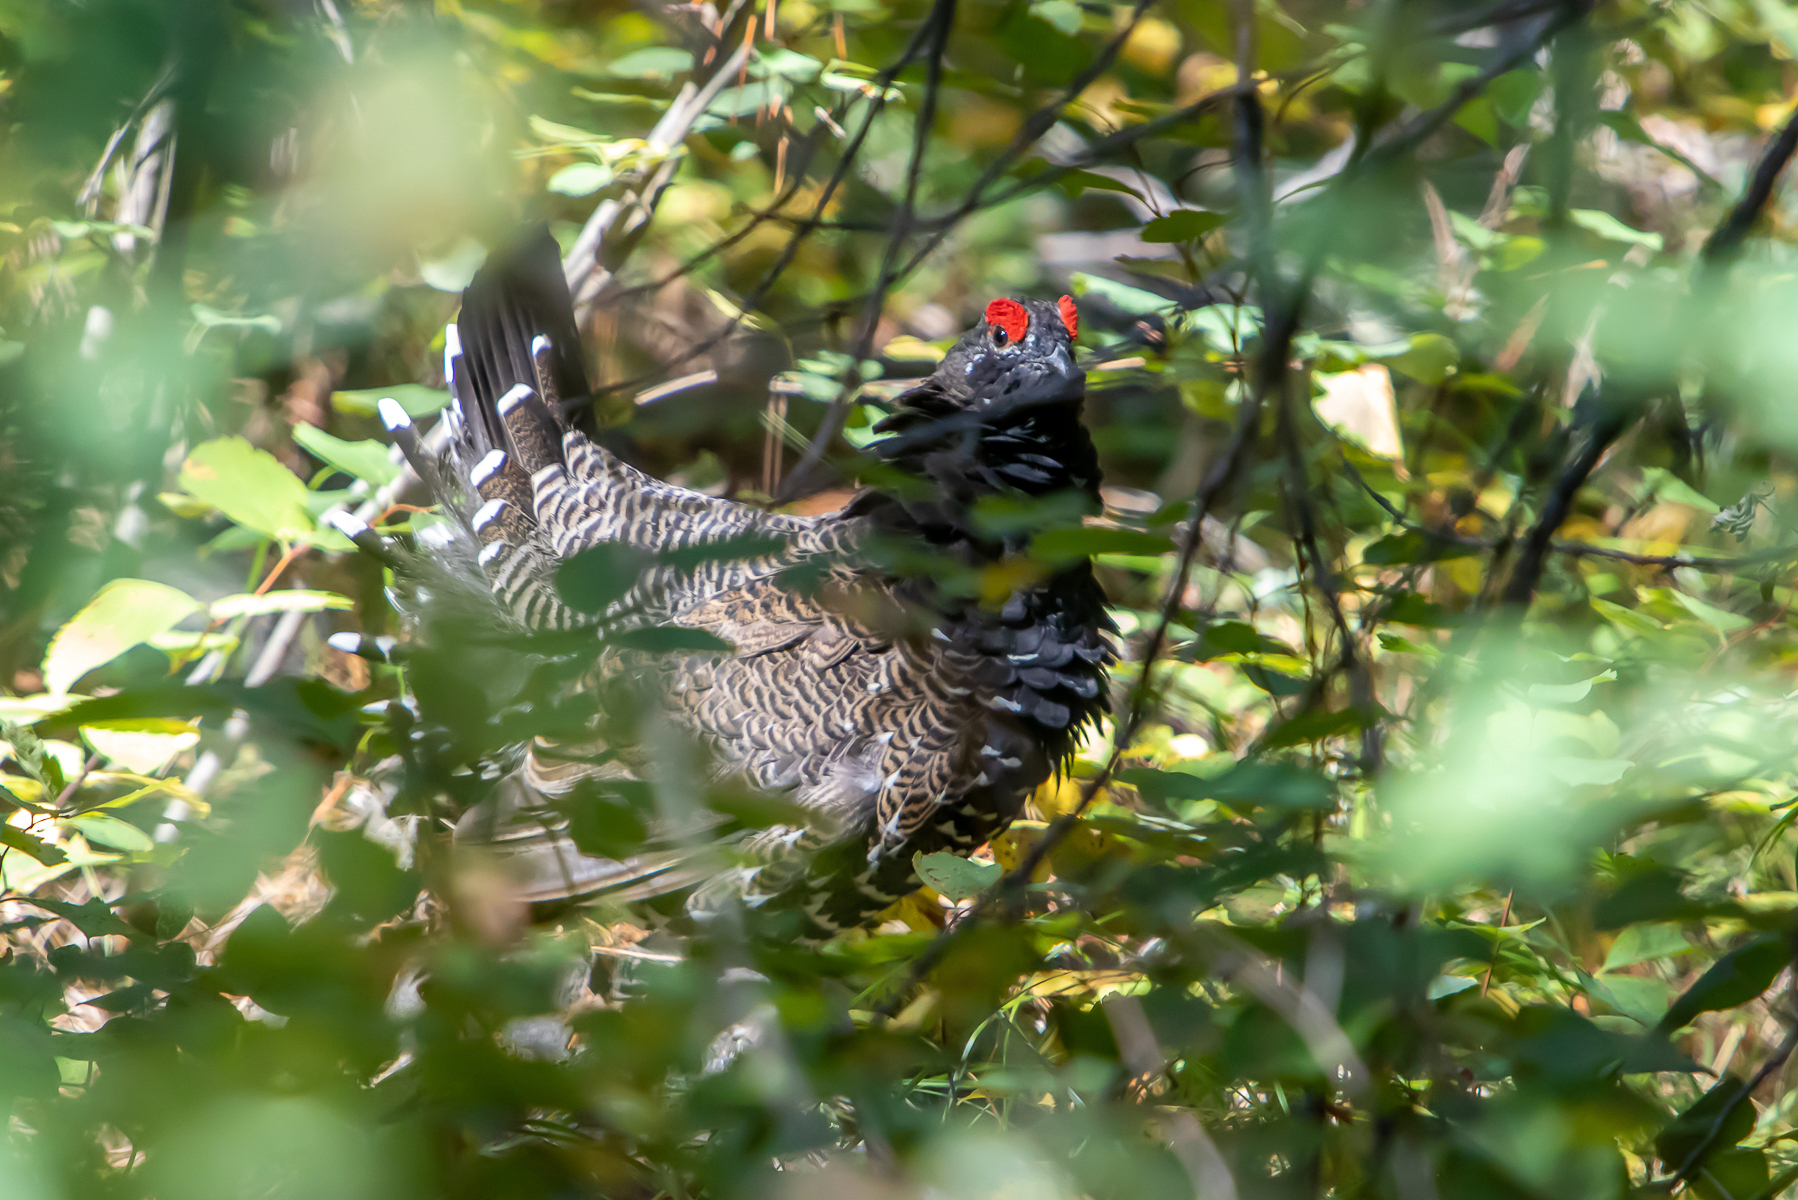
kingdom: Animalia
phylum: Chordata
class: Aves
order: Galliformes
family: Phasianidae
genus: Canachites
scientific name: Canachites canadensis
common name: Spruce grouse
